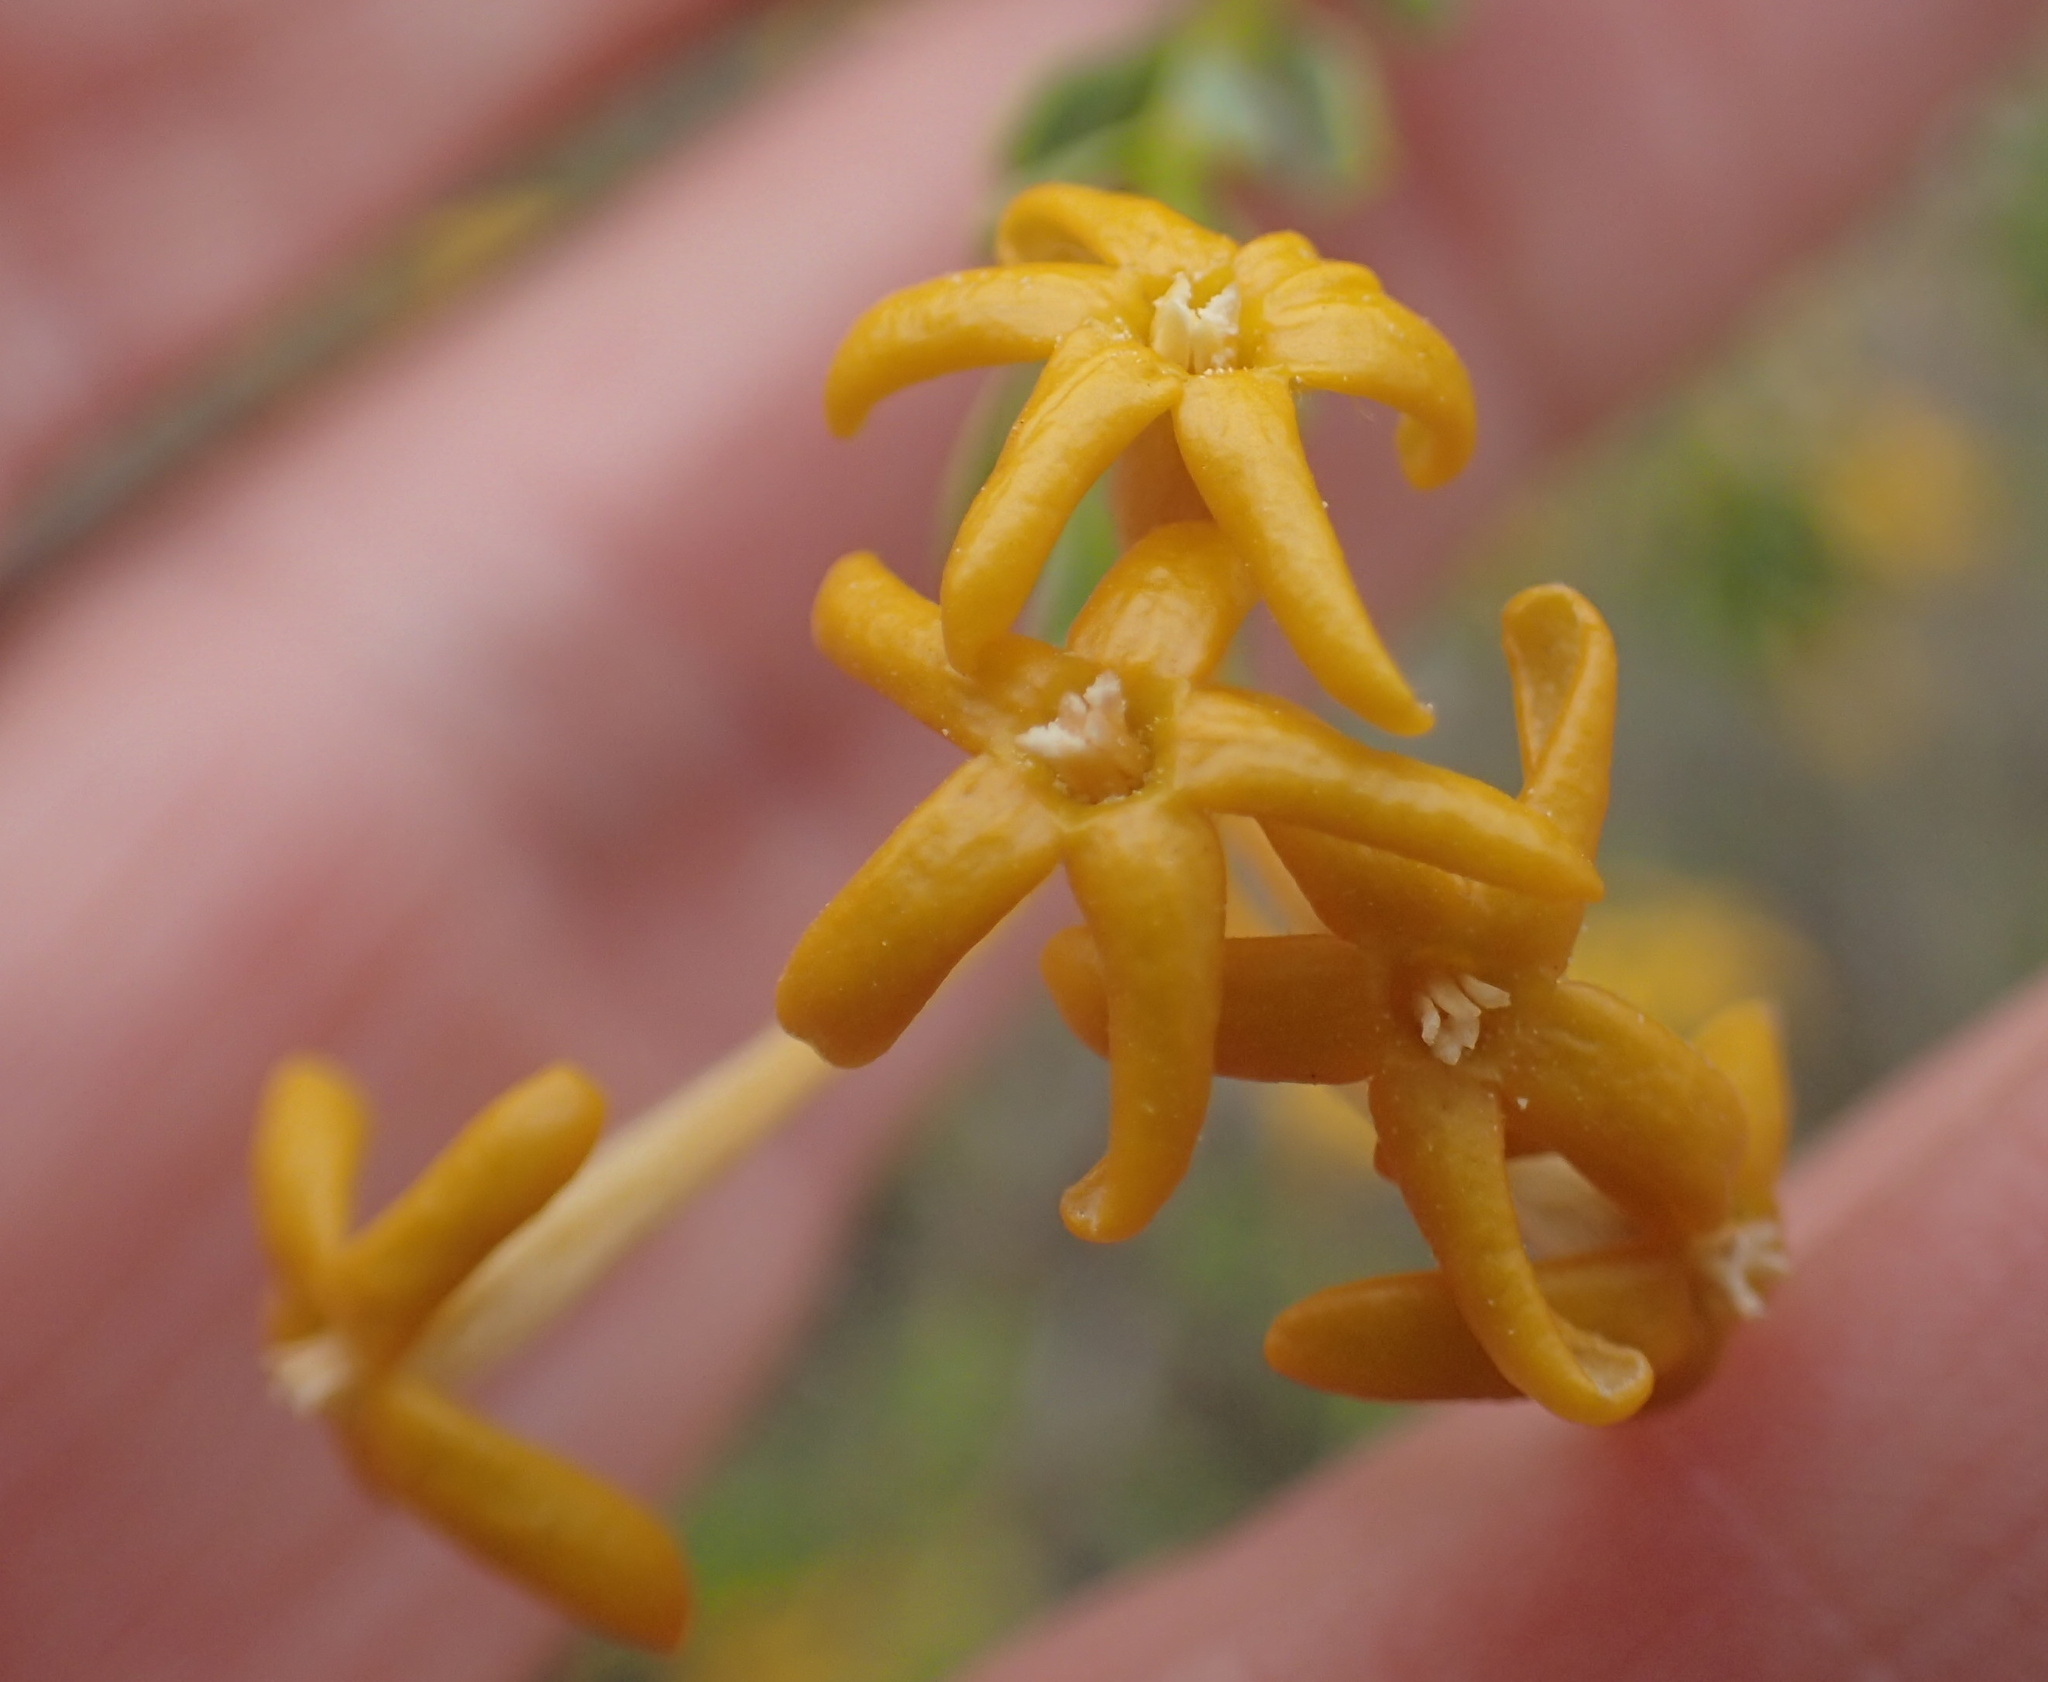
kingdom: Plantae
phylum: Tracheophyta
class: Magnoliopsida
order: Malvales
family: Thymelaeaceae
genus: Gnidia
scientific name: Gnidia deserticola
